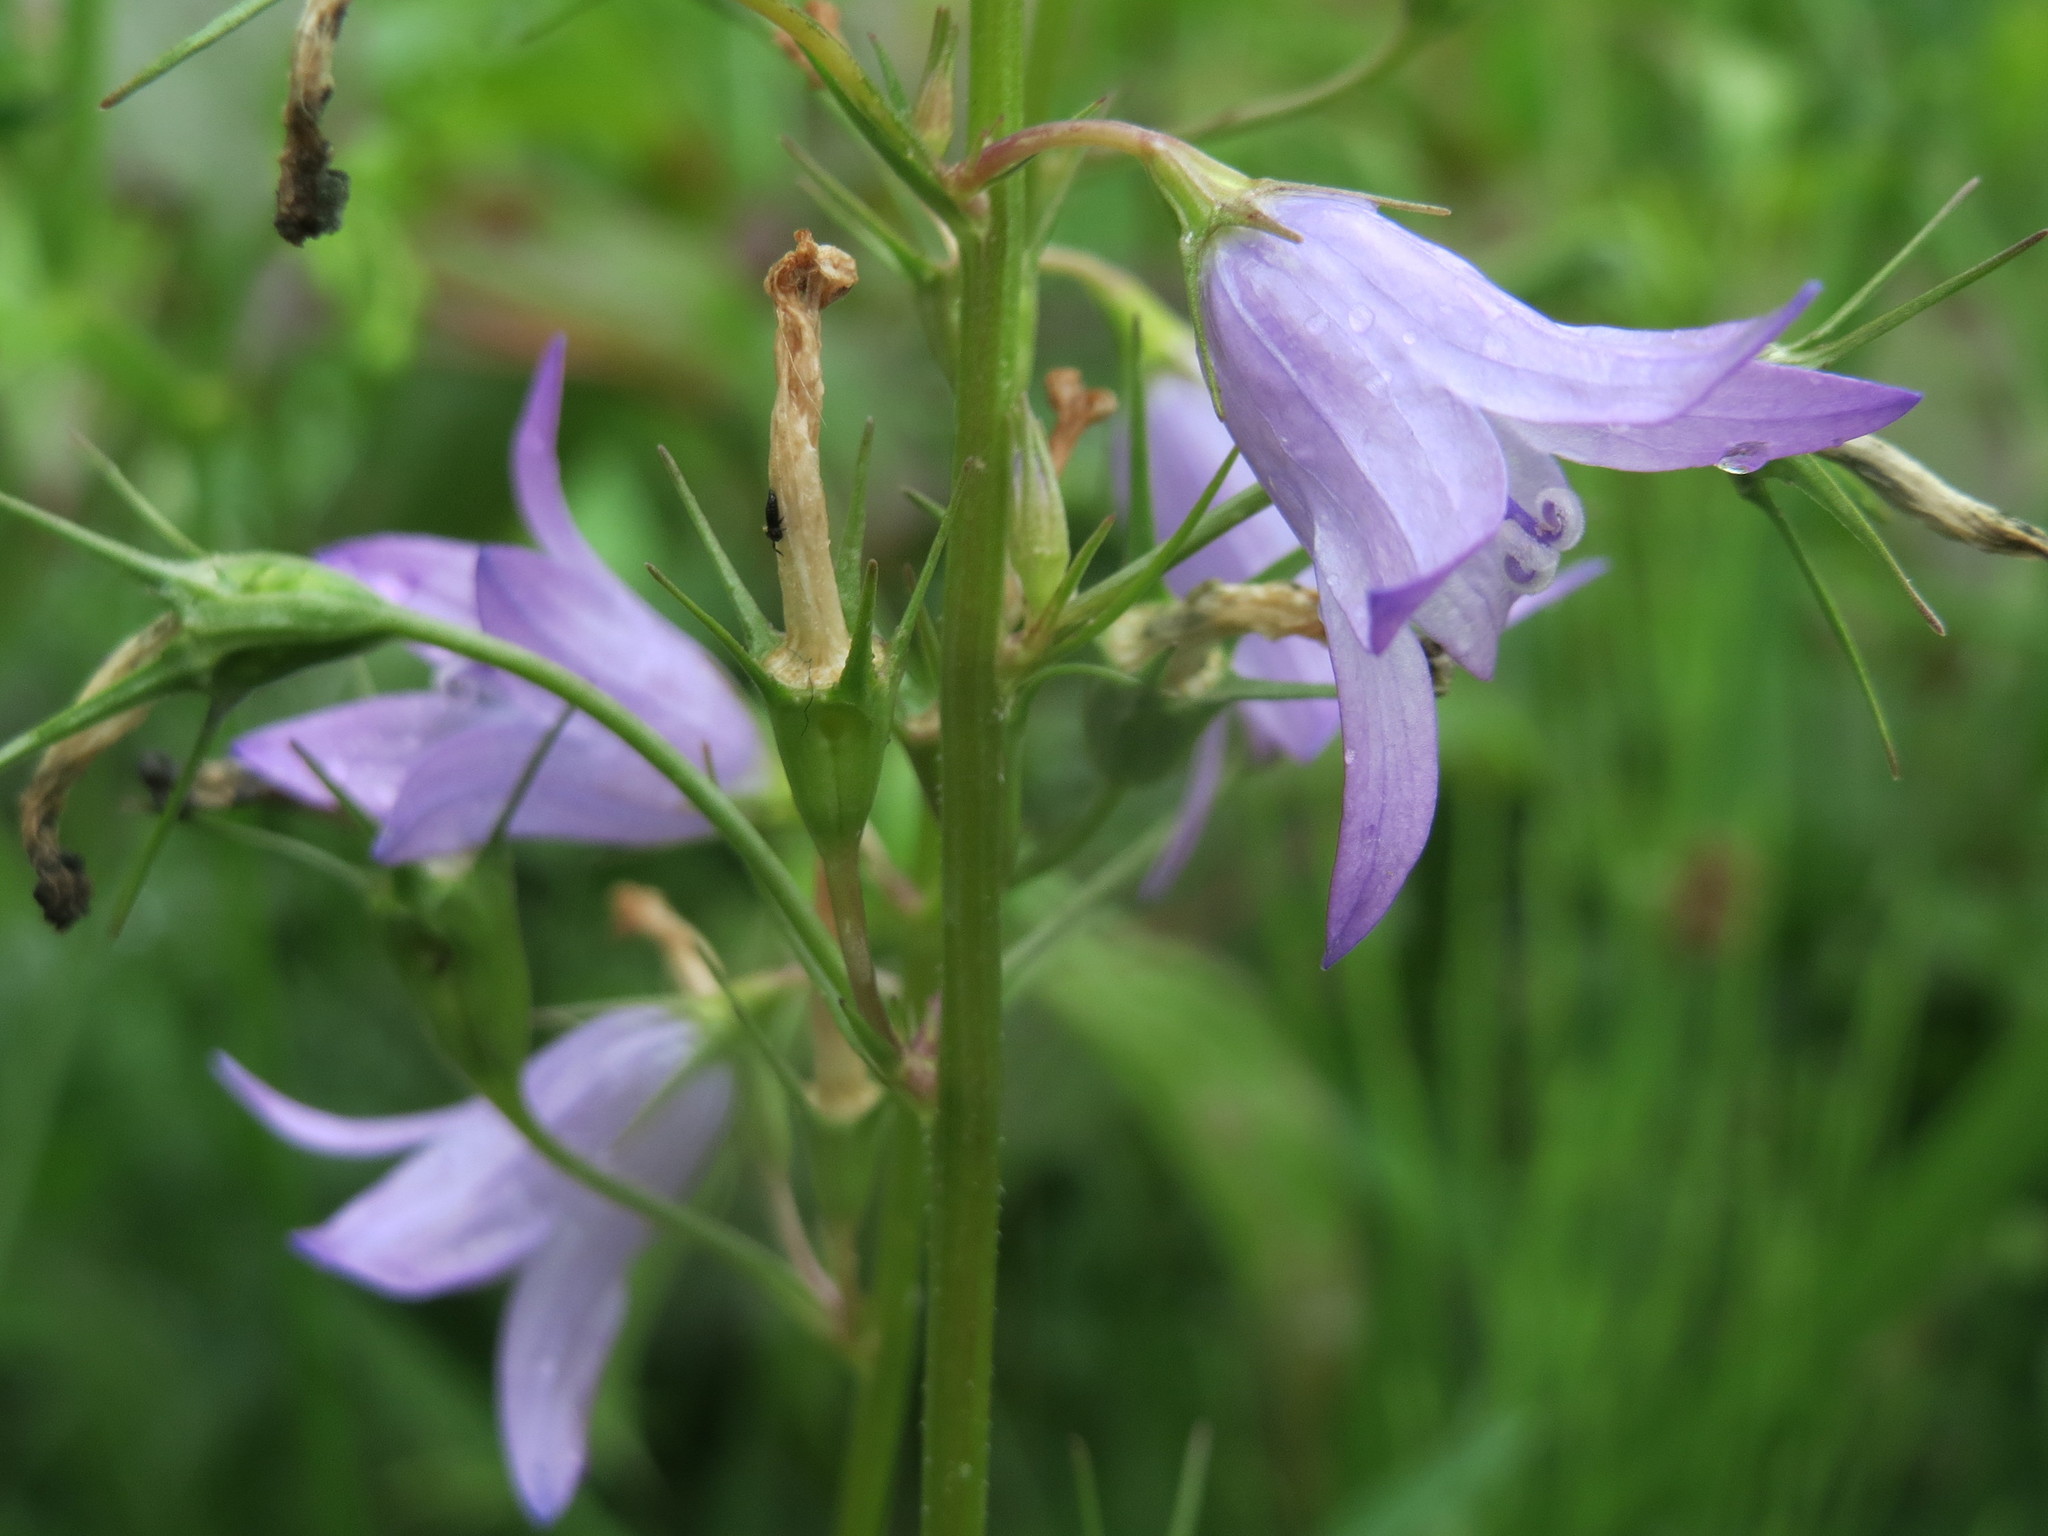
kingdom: Plantae
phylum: Tracheophyta
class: Magnoliopsida
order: Asterales
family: Campanulaceae
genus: Campanula
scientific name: Campanula rapunculus
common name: Rampion bellflower
